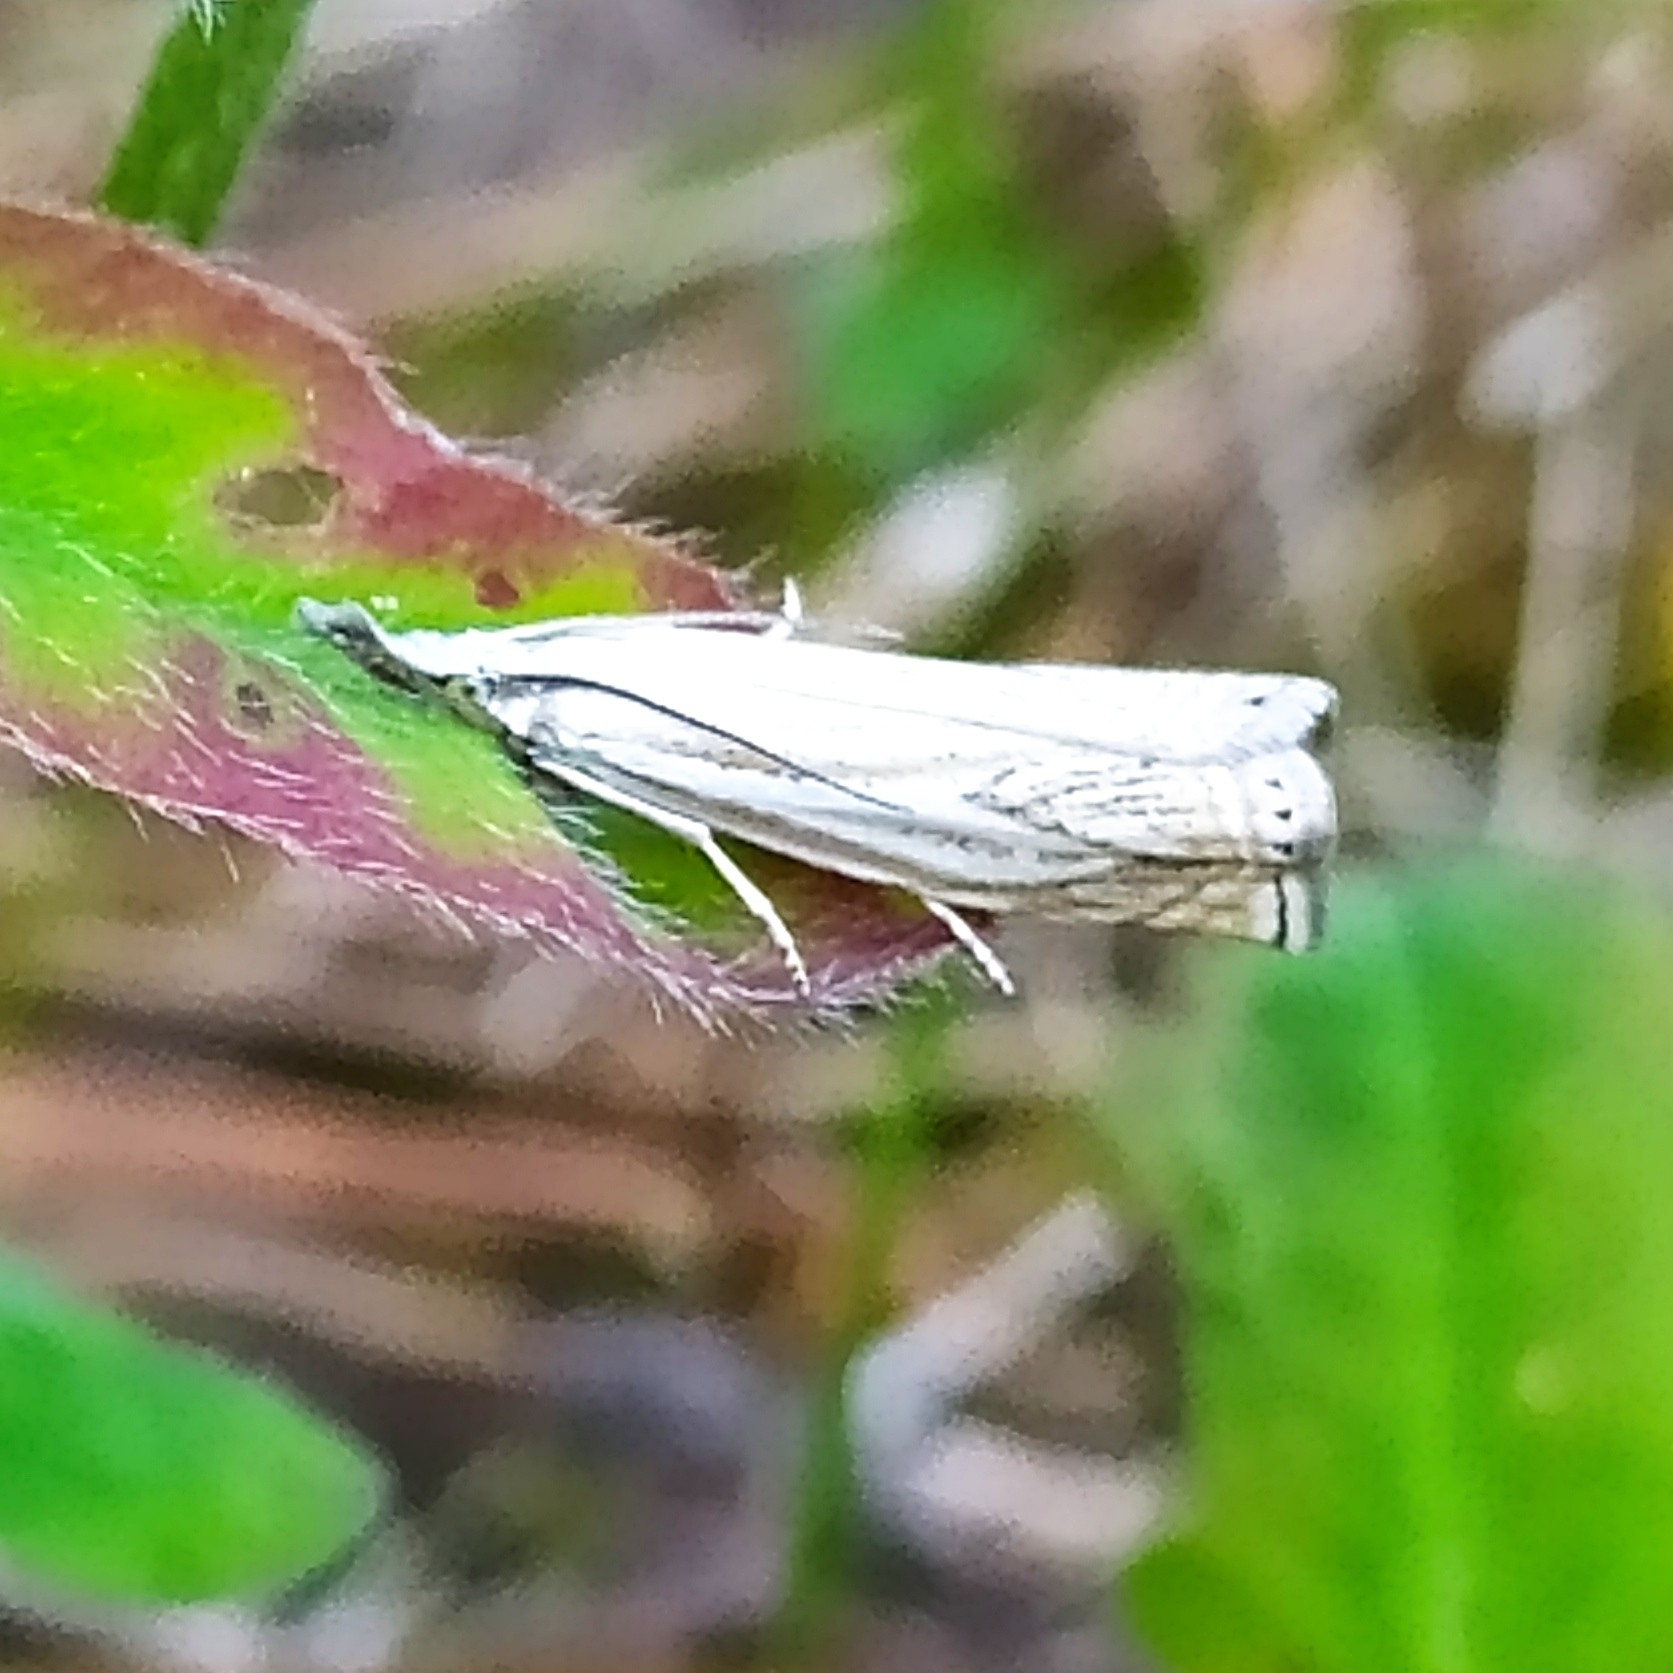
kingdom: Animalia
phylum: Arthropoda
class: Insecta
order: Lepidoptera
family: Crambidae
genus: Crambus
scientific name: Crambus nemorella
